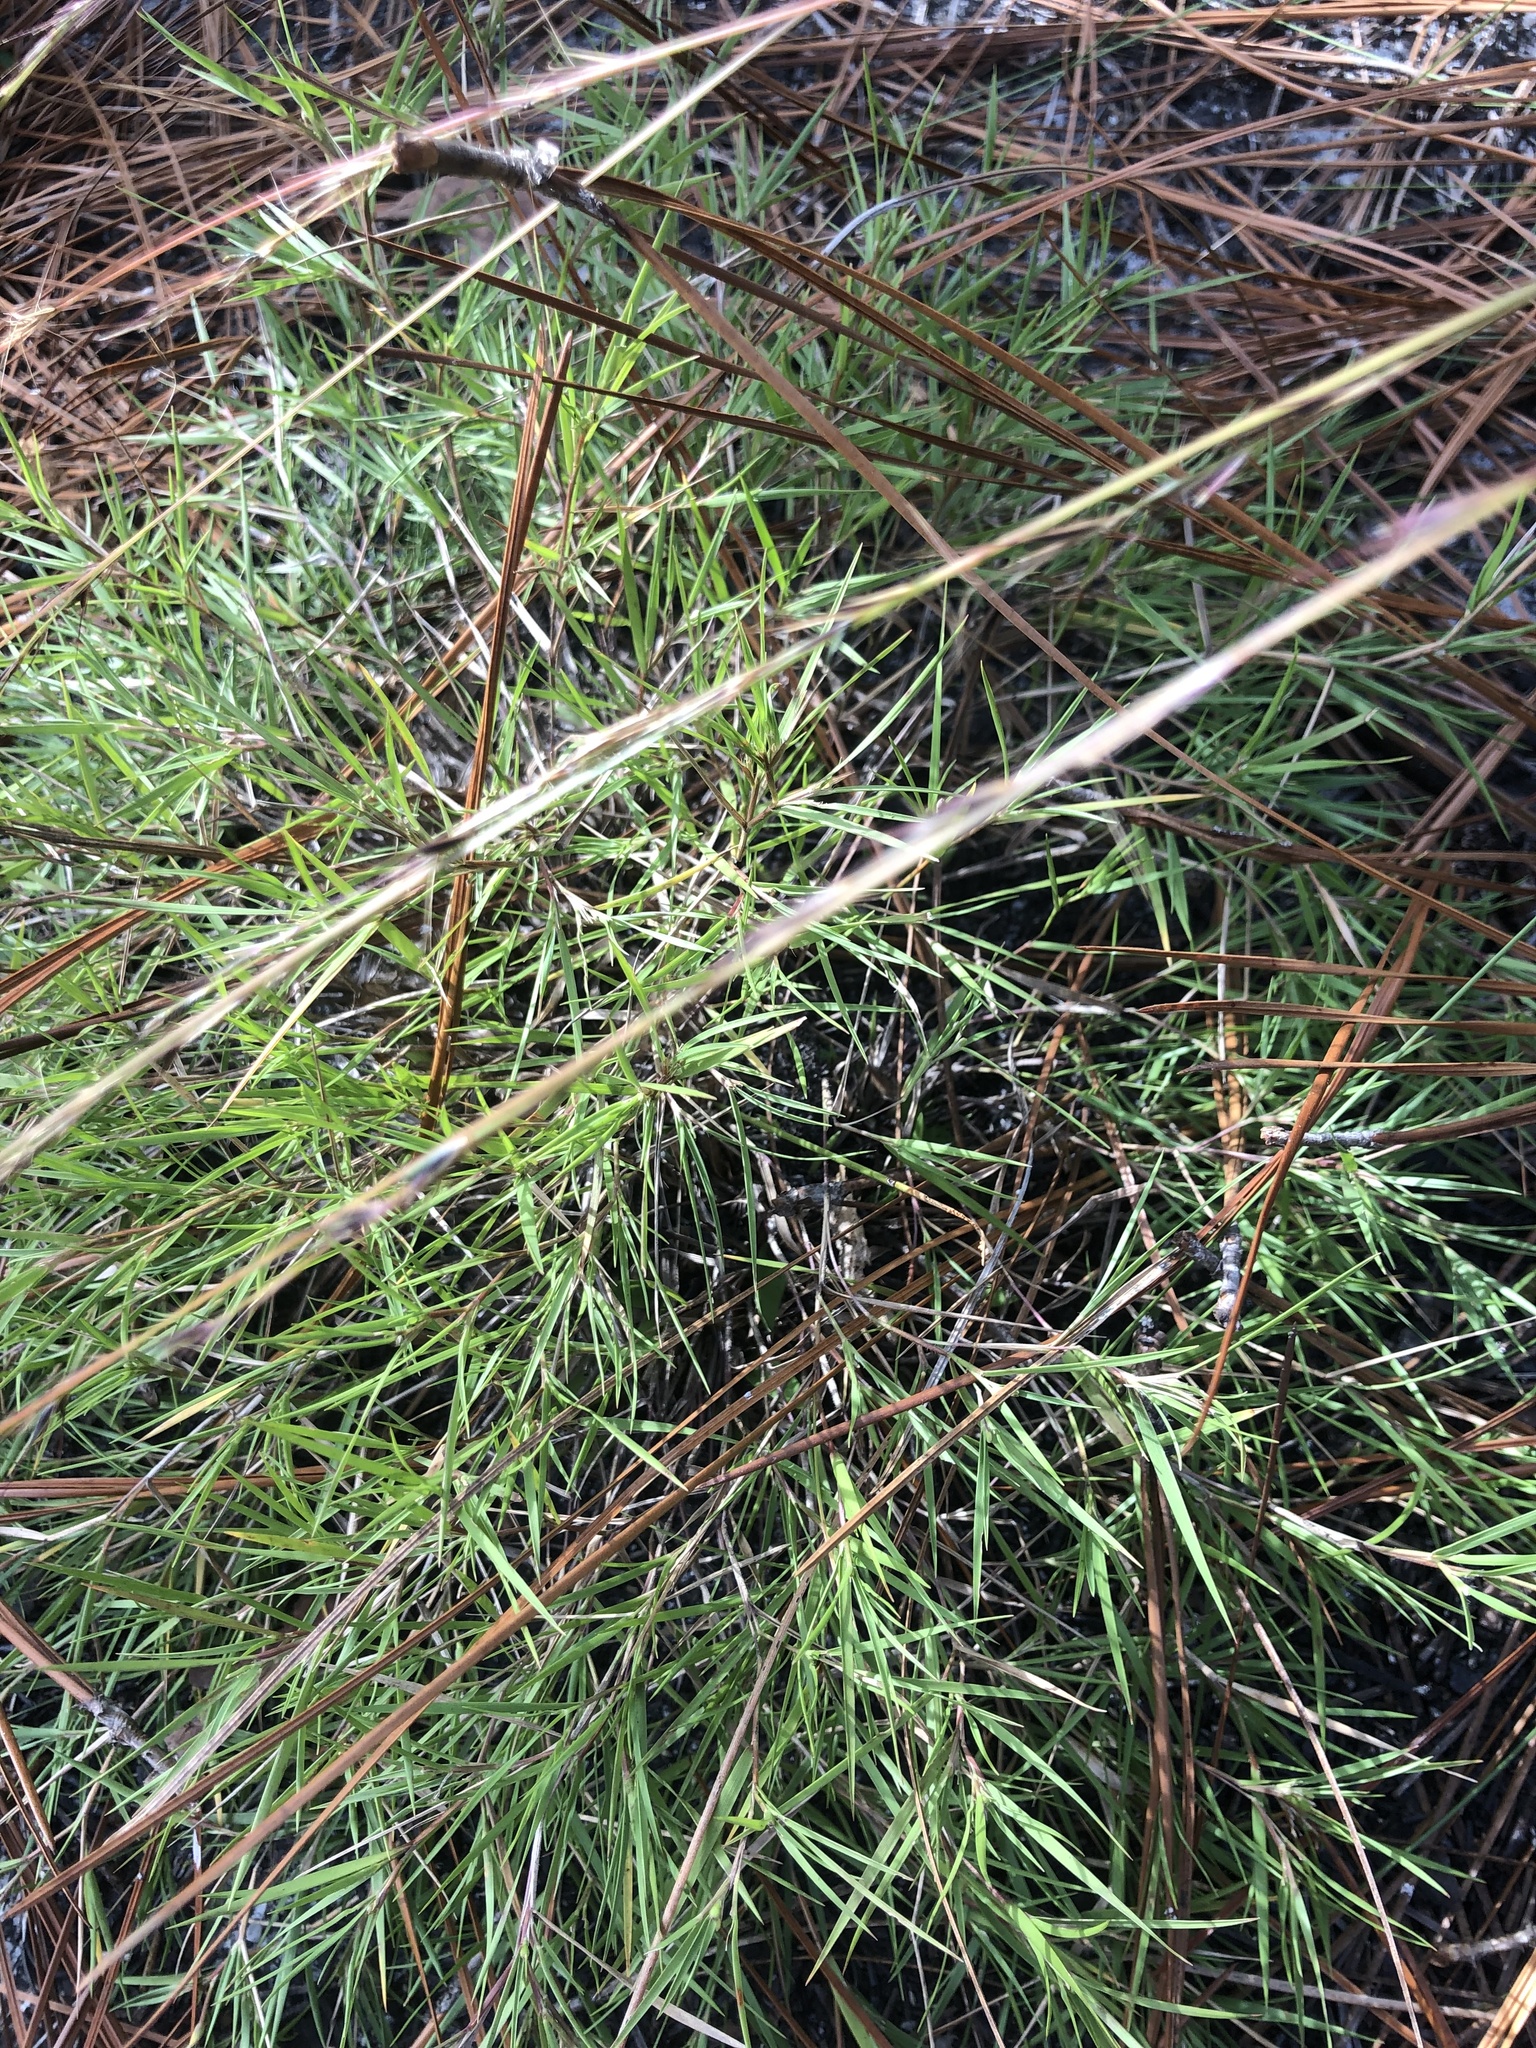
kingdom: Plantae
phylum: Tracheophyta
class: Liliopsida
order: Poales
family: Poaceae
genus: Dichanthelium
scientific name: Dichanthelium aciculare
